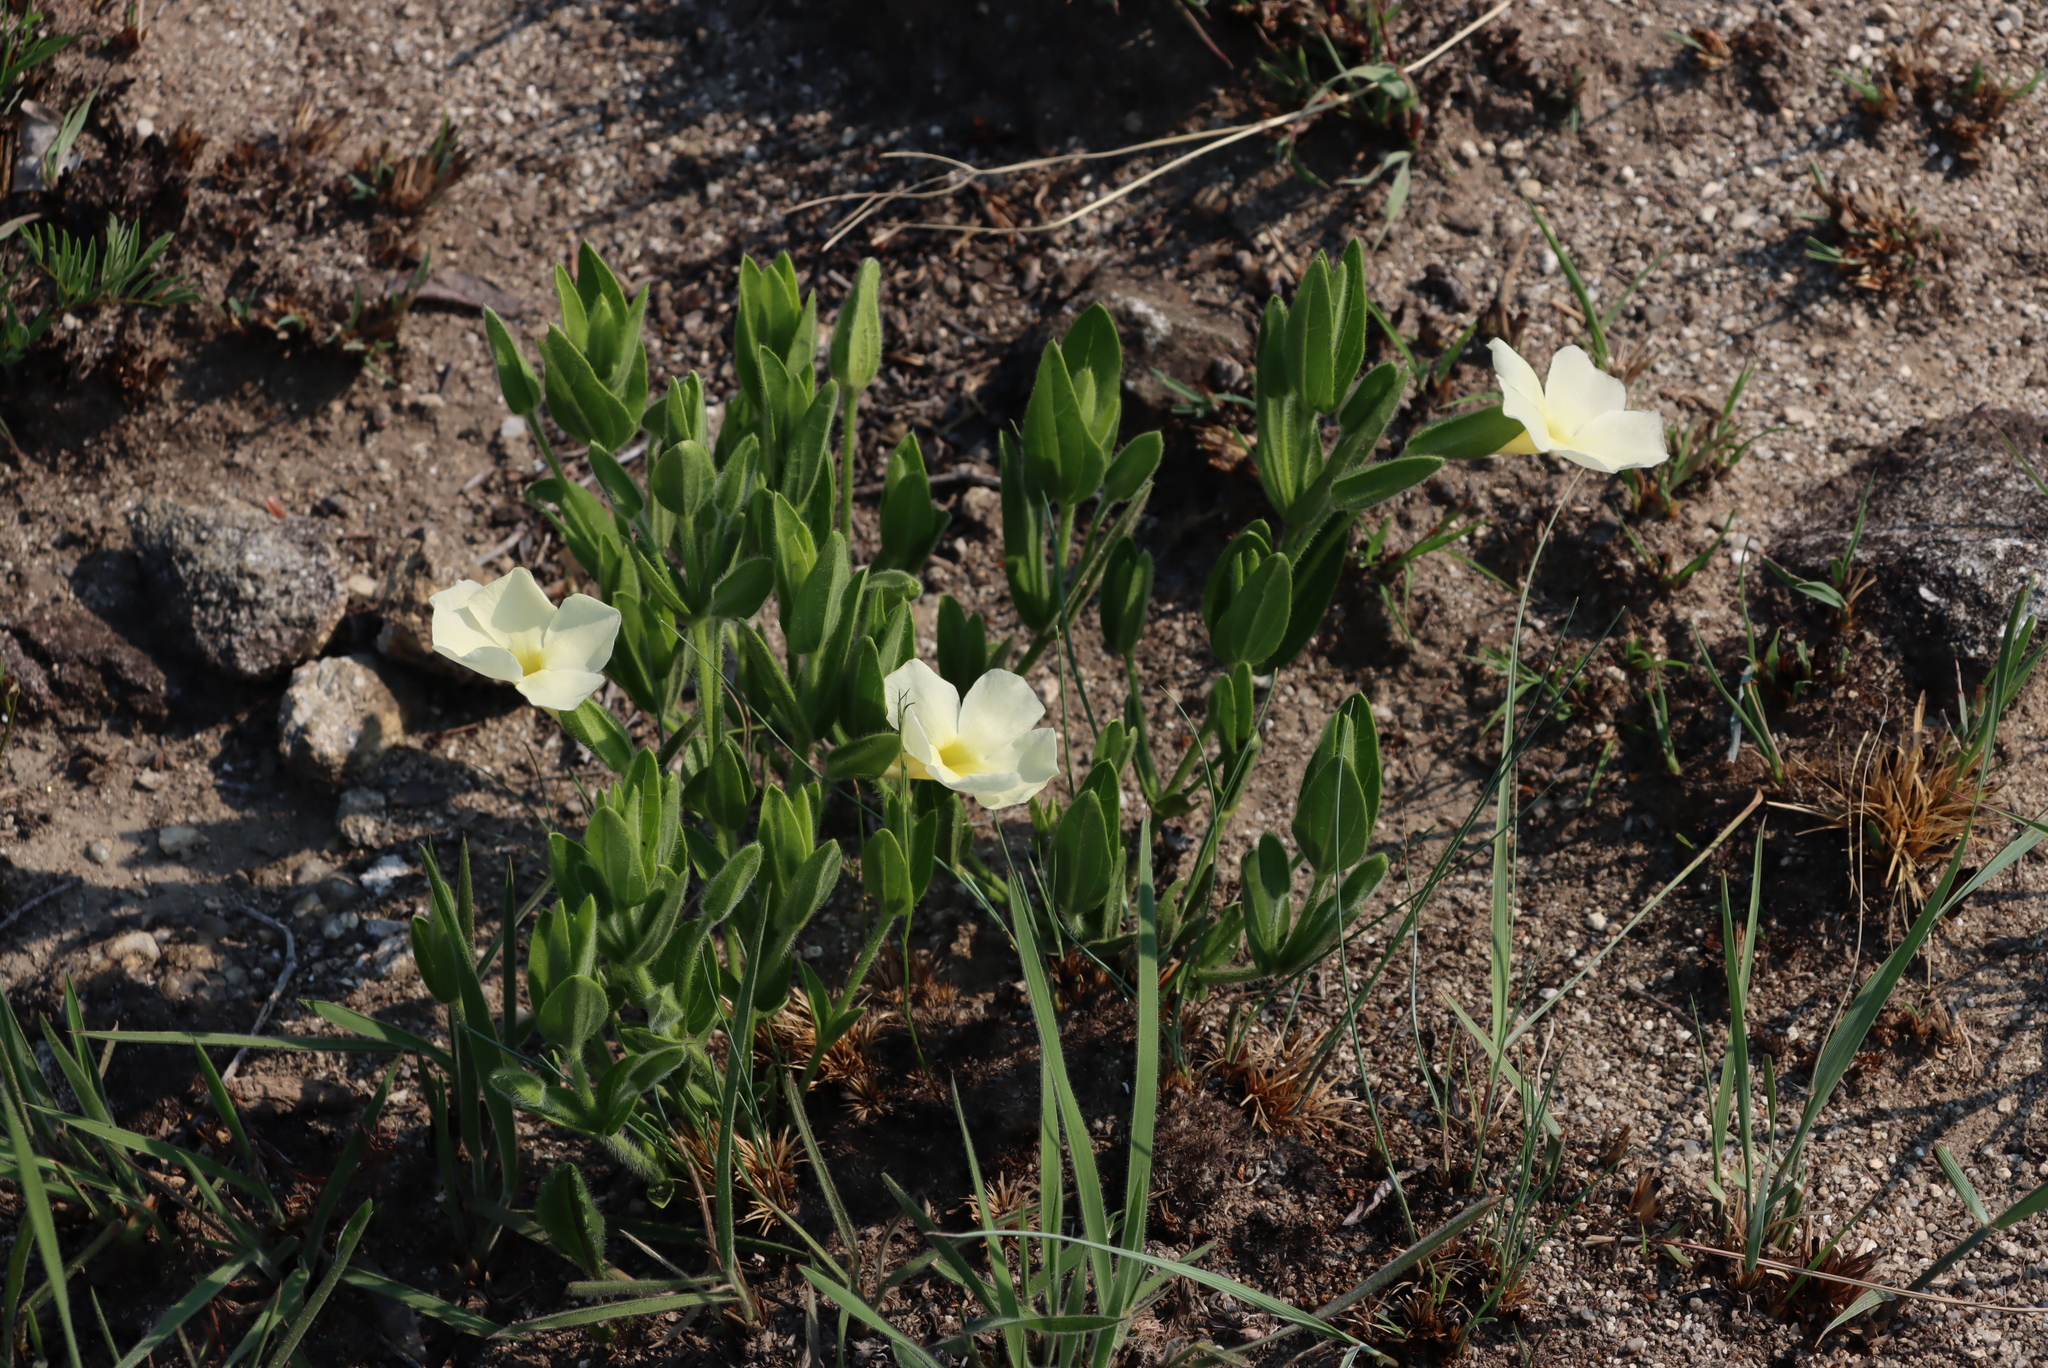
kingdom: Plantae
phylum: Tracheophyta
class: Magnoliopsida
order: Lamiales
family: Acanthaceae
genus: Thunbergia
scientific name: Thunbergia atriplicifolia
